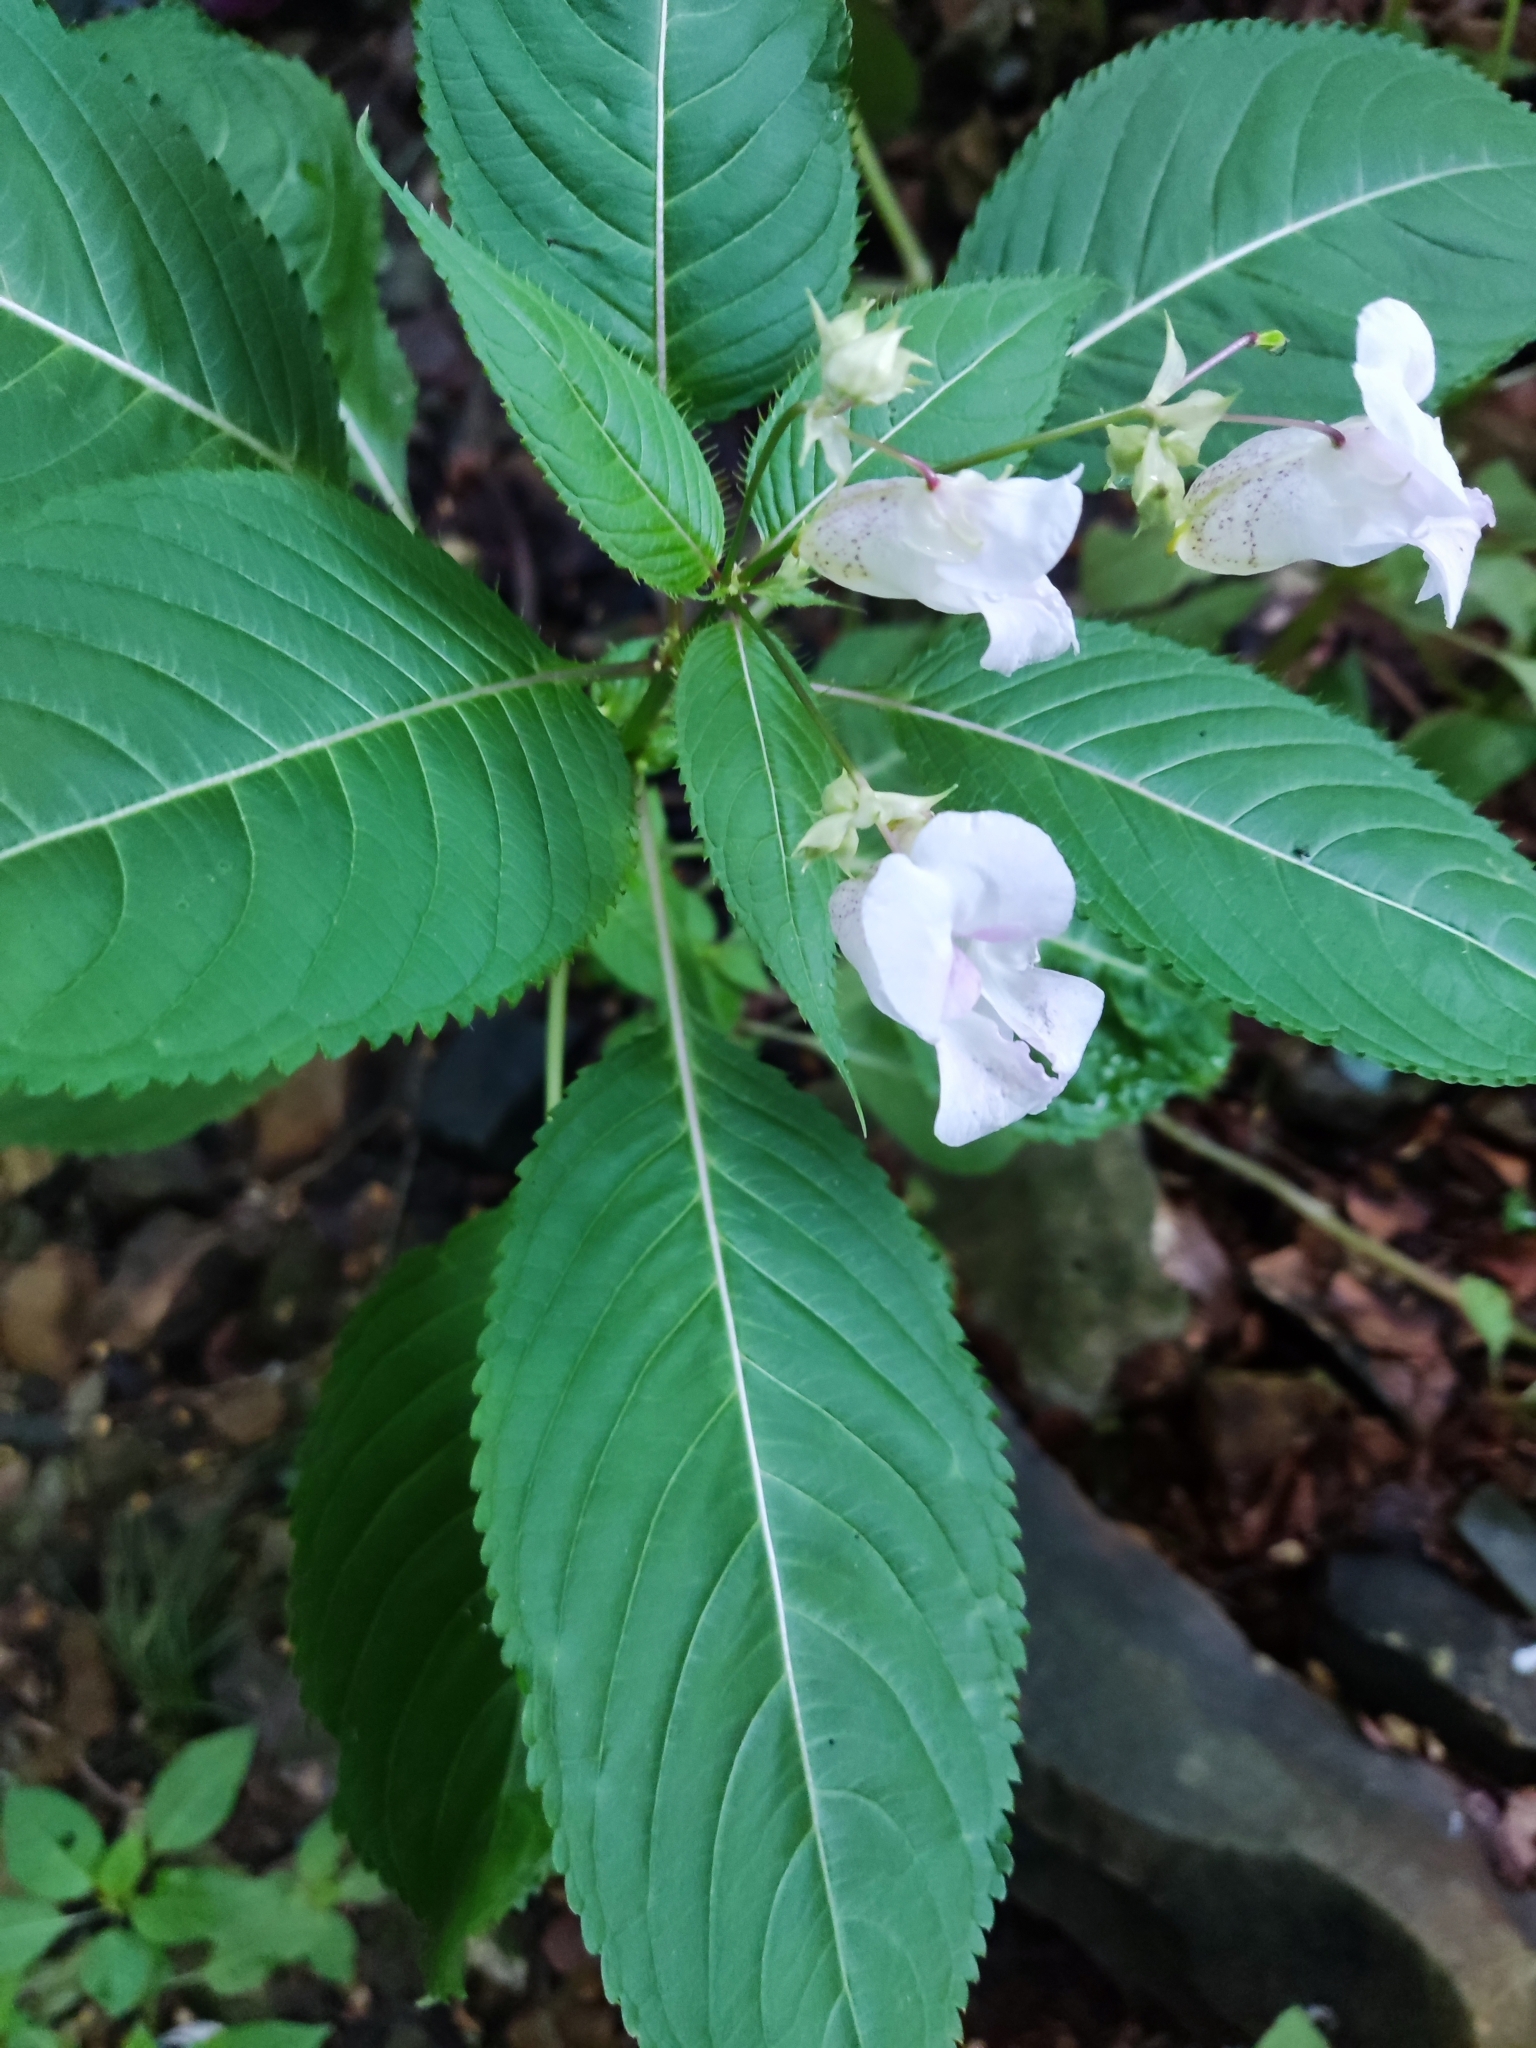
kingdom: Plantae
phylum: Tracheophyta
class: Magnoliopsida
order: Ericales
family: Balsaminaceae
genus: Impatiens
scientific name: Impatiens glandulifera
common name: Himalayan balsam
